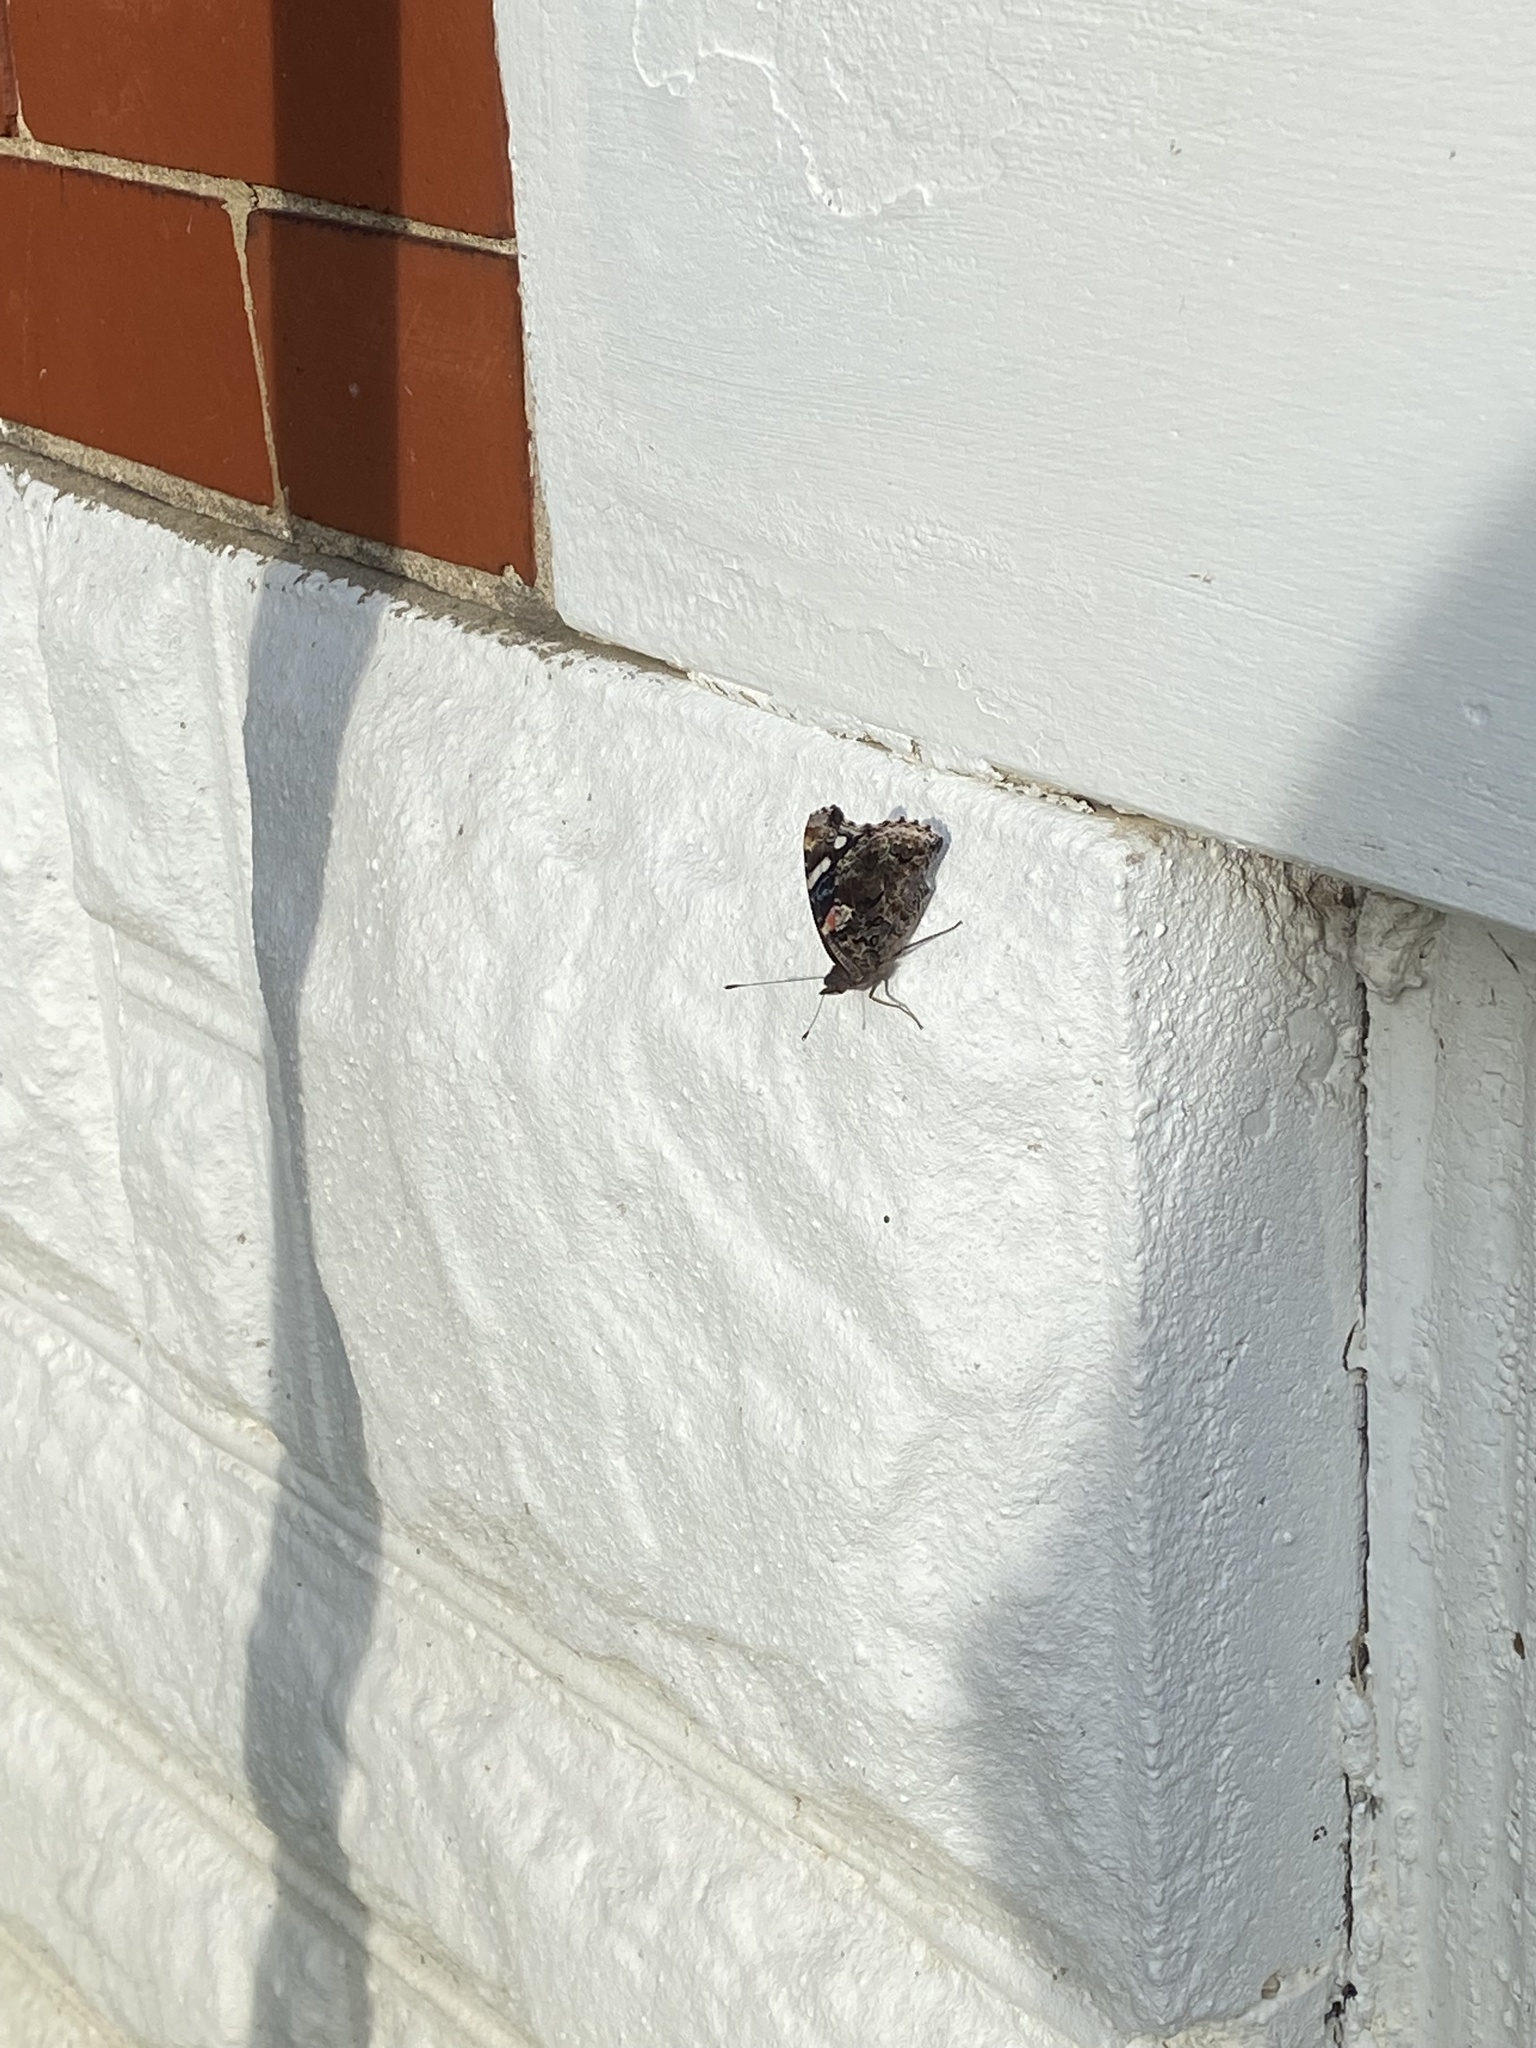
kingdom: Animalia
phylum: Arthropoda
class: Insecta
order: Lepidoptera
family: Nymphalidae
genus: Vanessa
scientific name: Vanessa atalanta
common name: Red admiral
